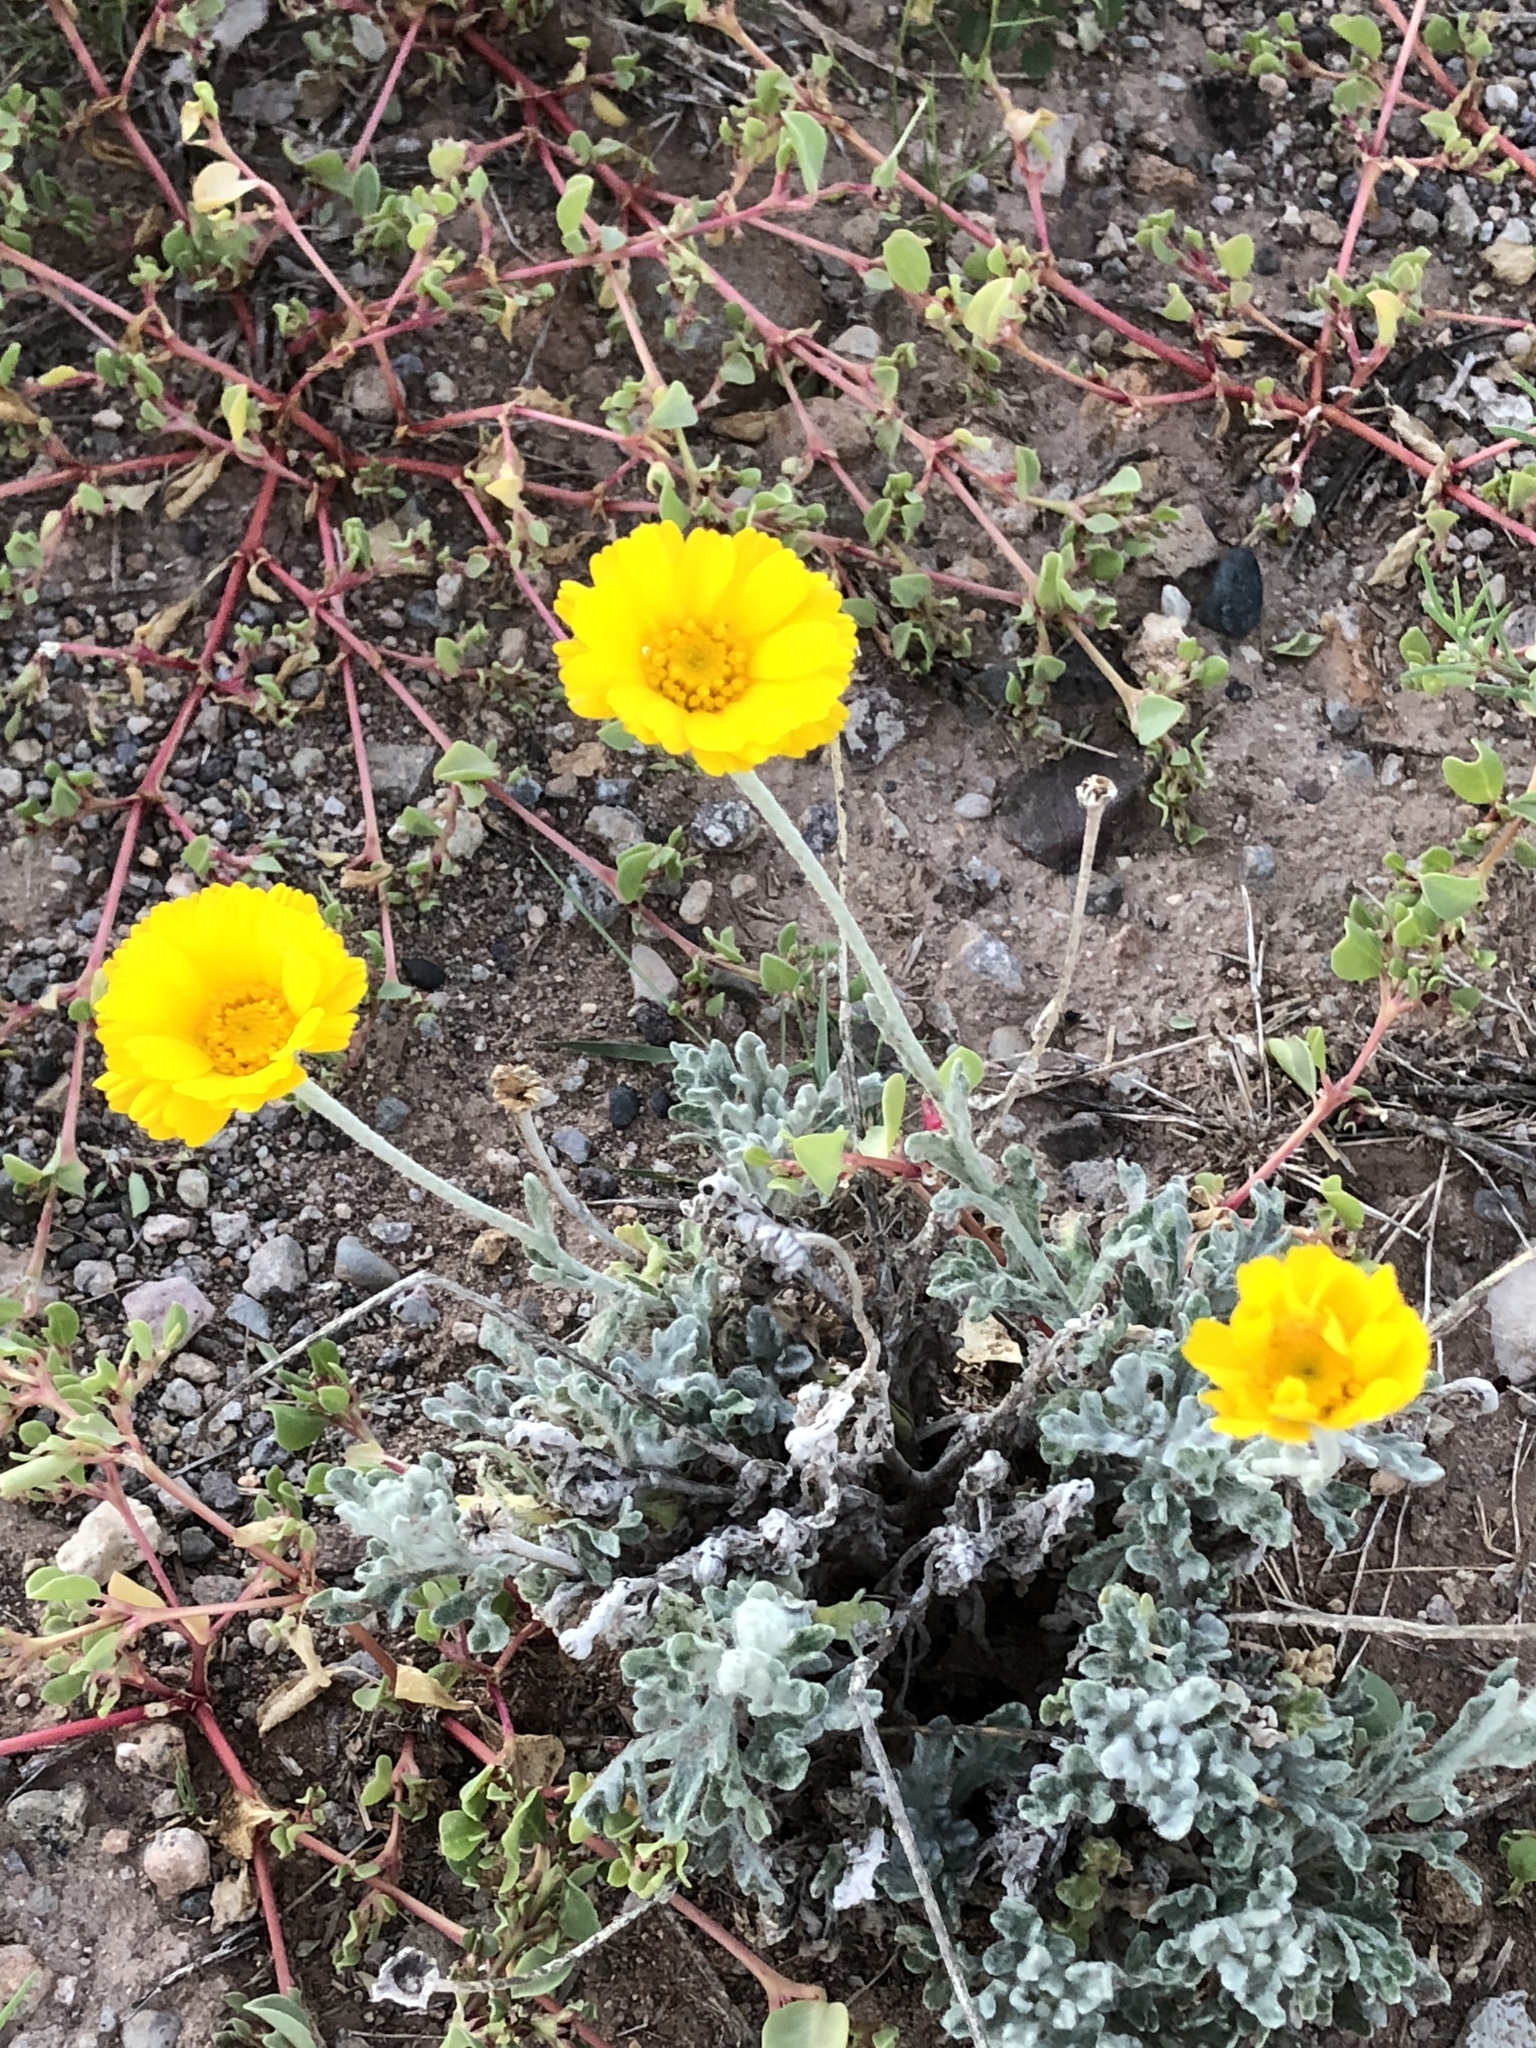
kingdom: Plantae
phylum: Tracheophyta
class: Magnoliopsida
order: Asterales
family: Asteraceae
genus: Baileya
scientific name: Baileya multiradiata
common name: Desert-marigold
